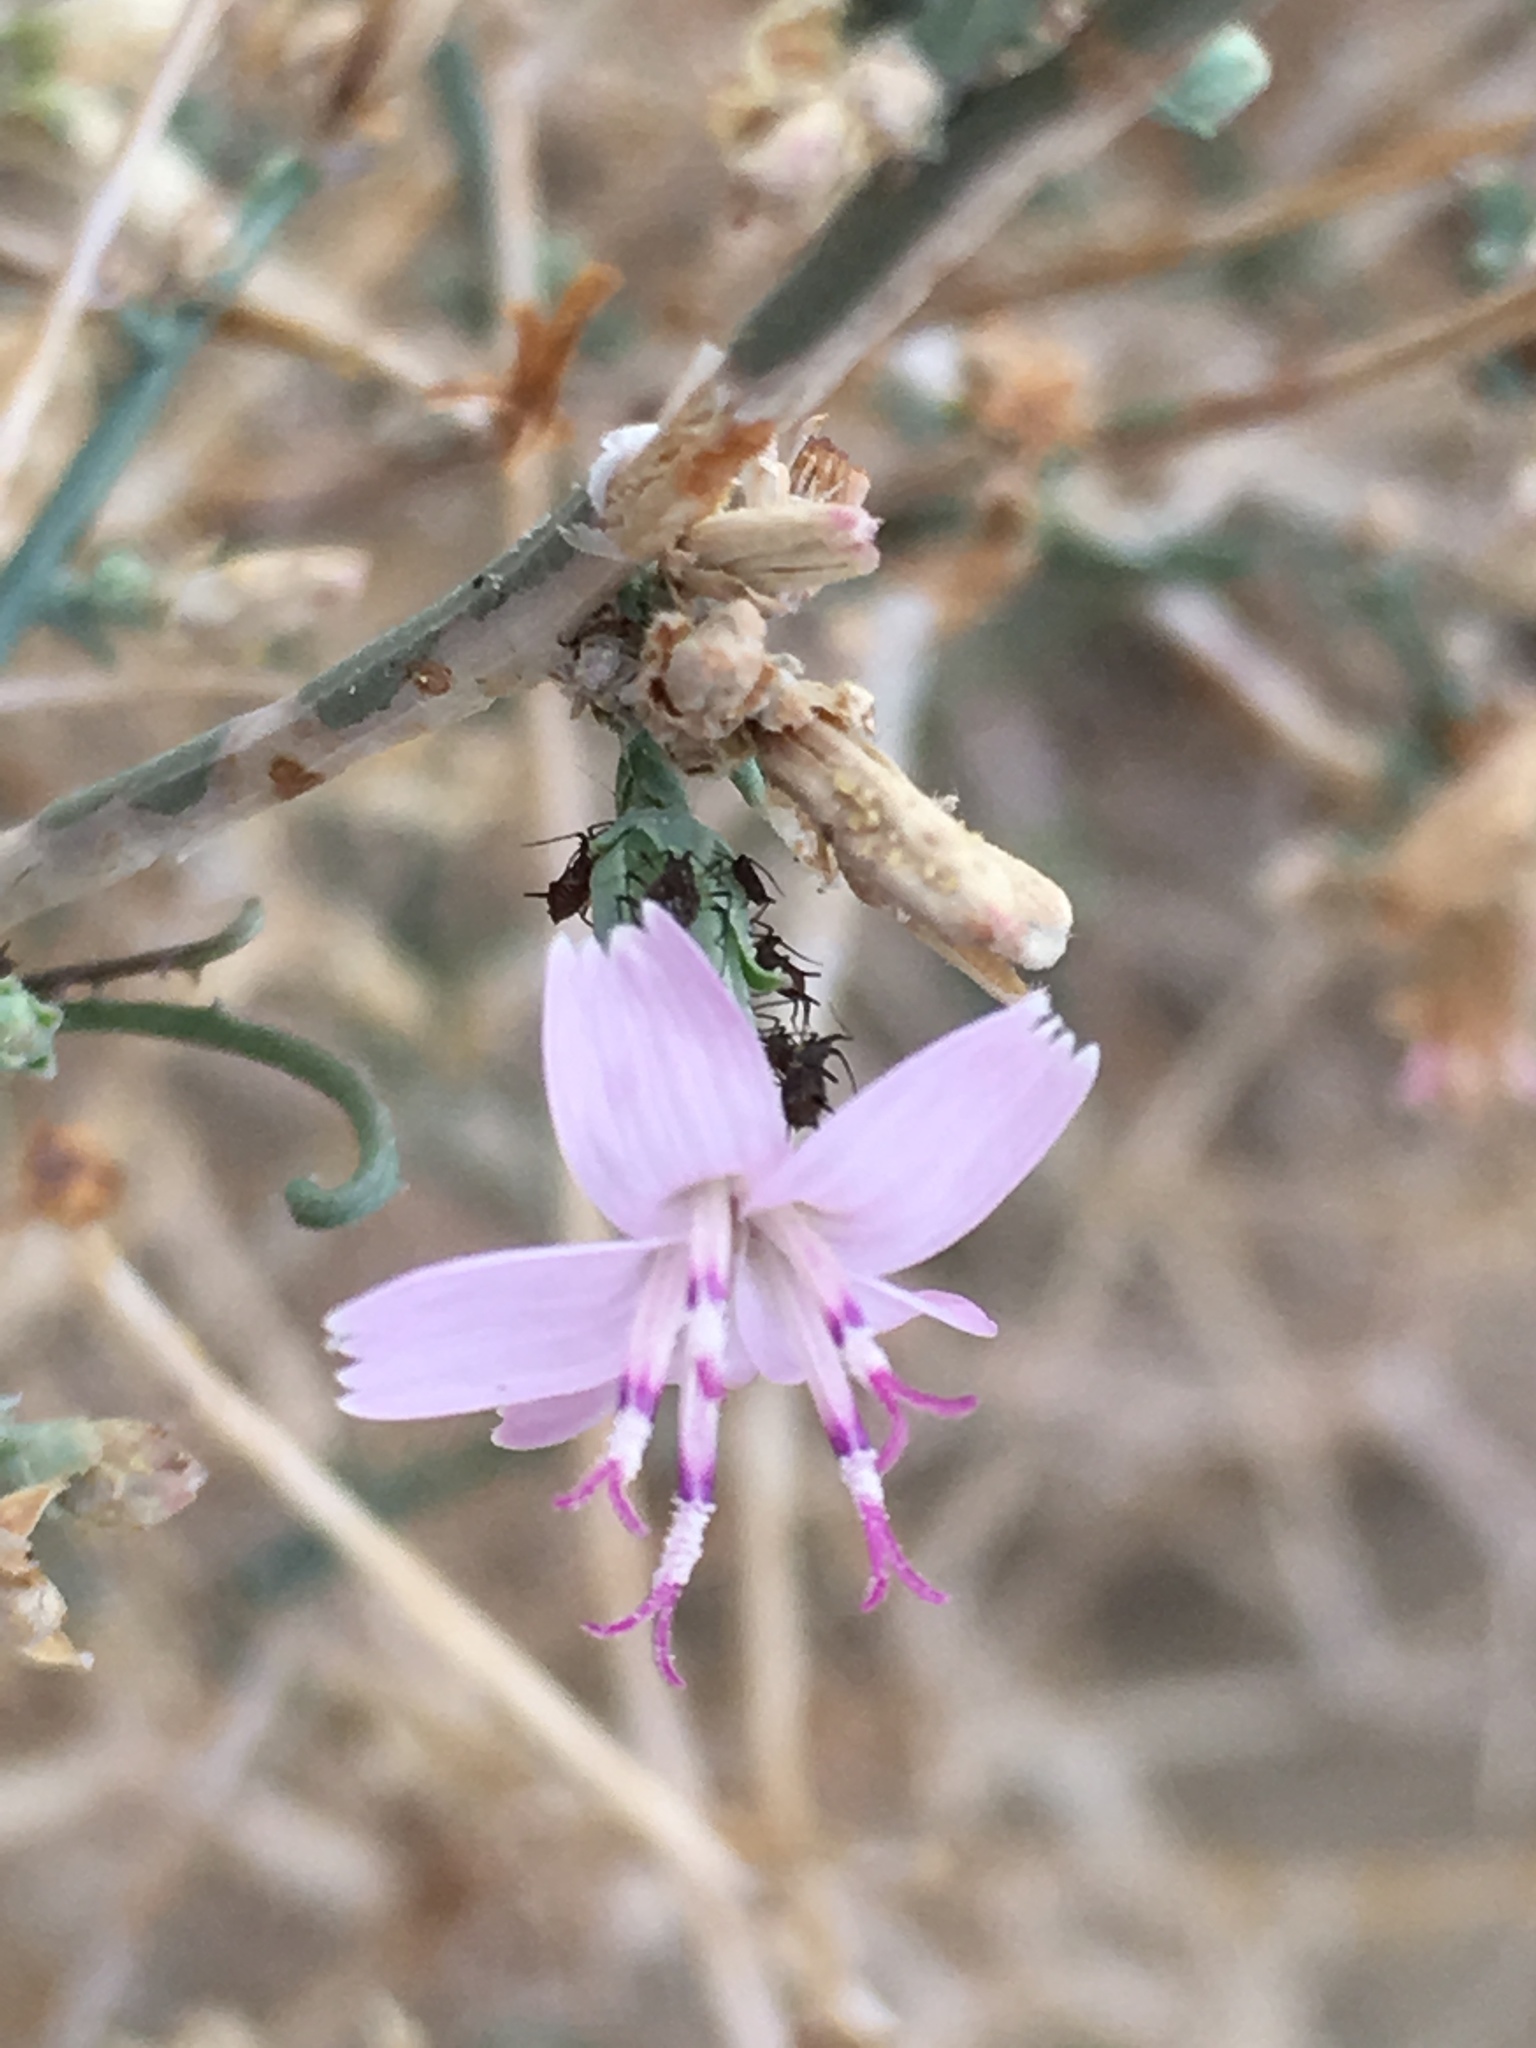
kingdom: Plantae
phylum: Tracheophyta
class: Magnoliopsida
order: Asterales
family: Asteraceae
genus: Stephanomeria
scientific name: Stephanomeria pauciflora
